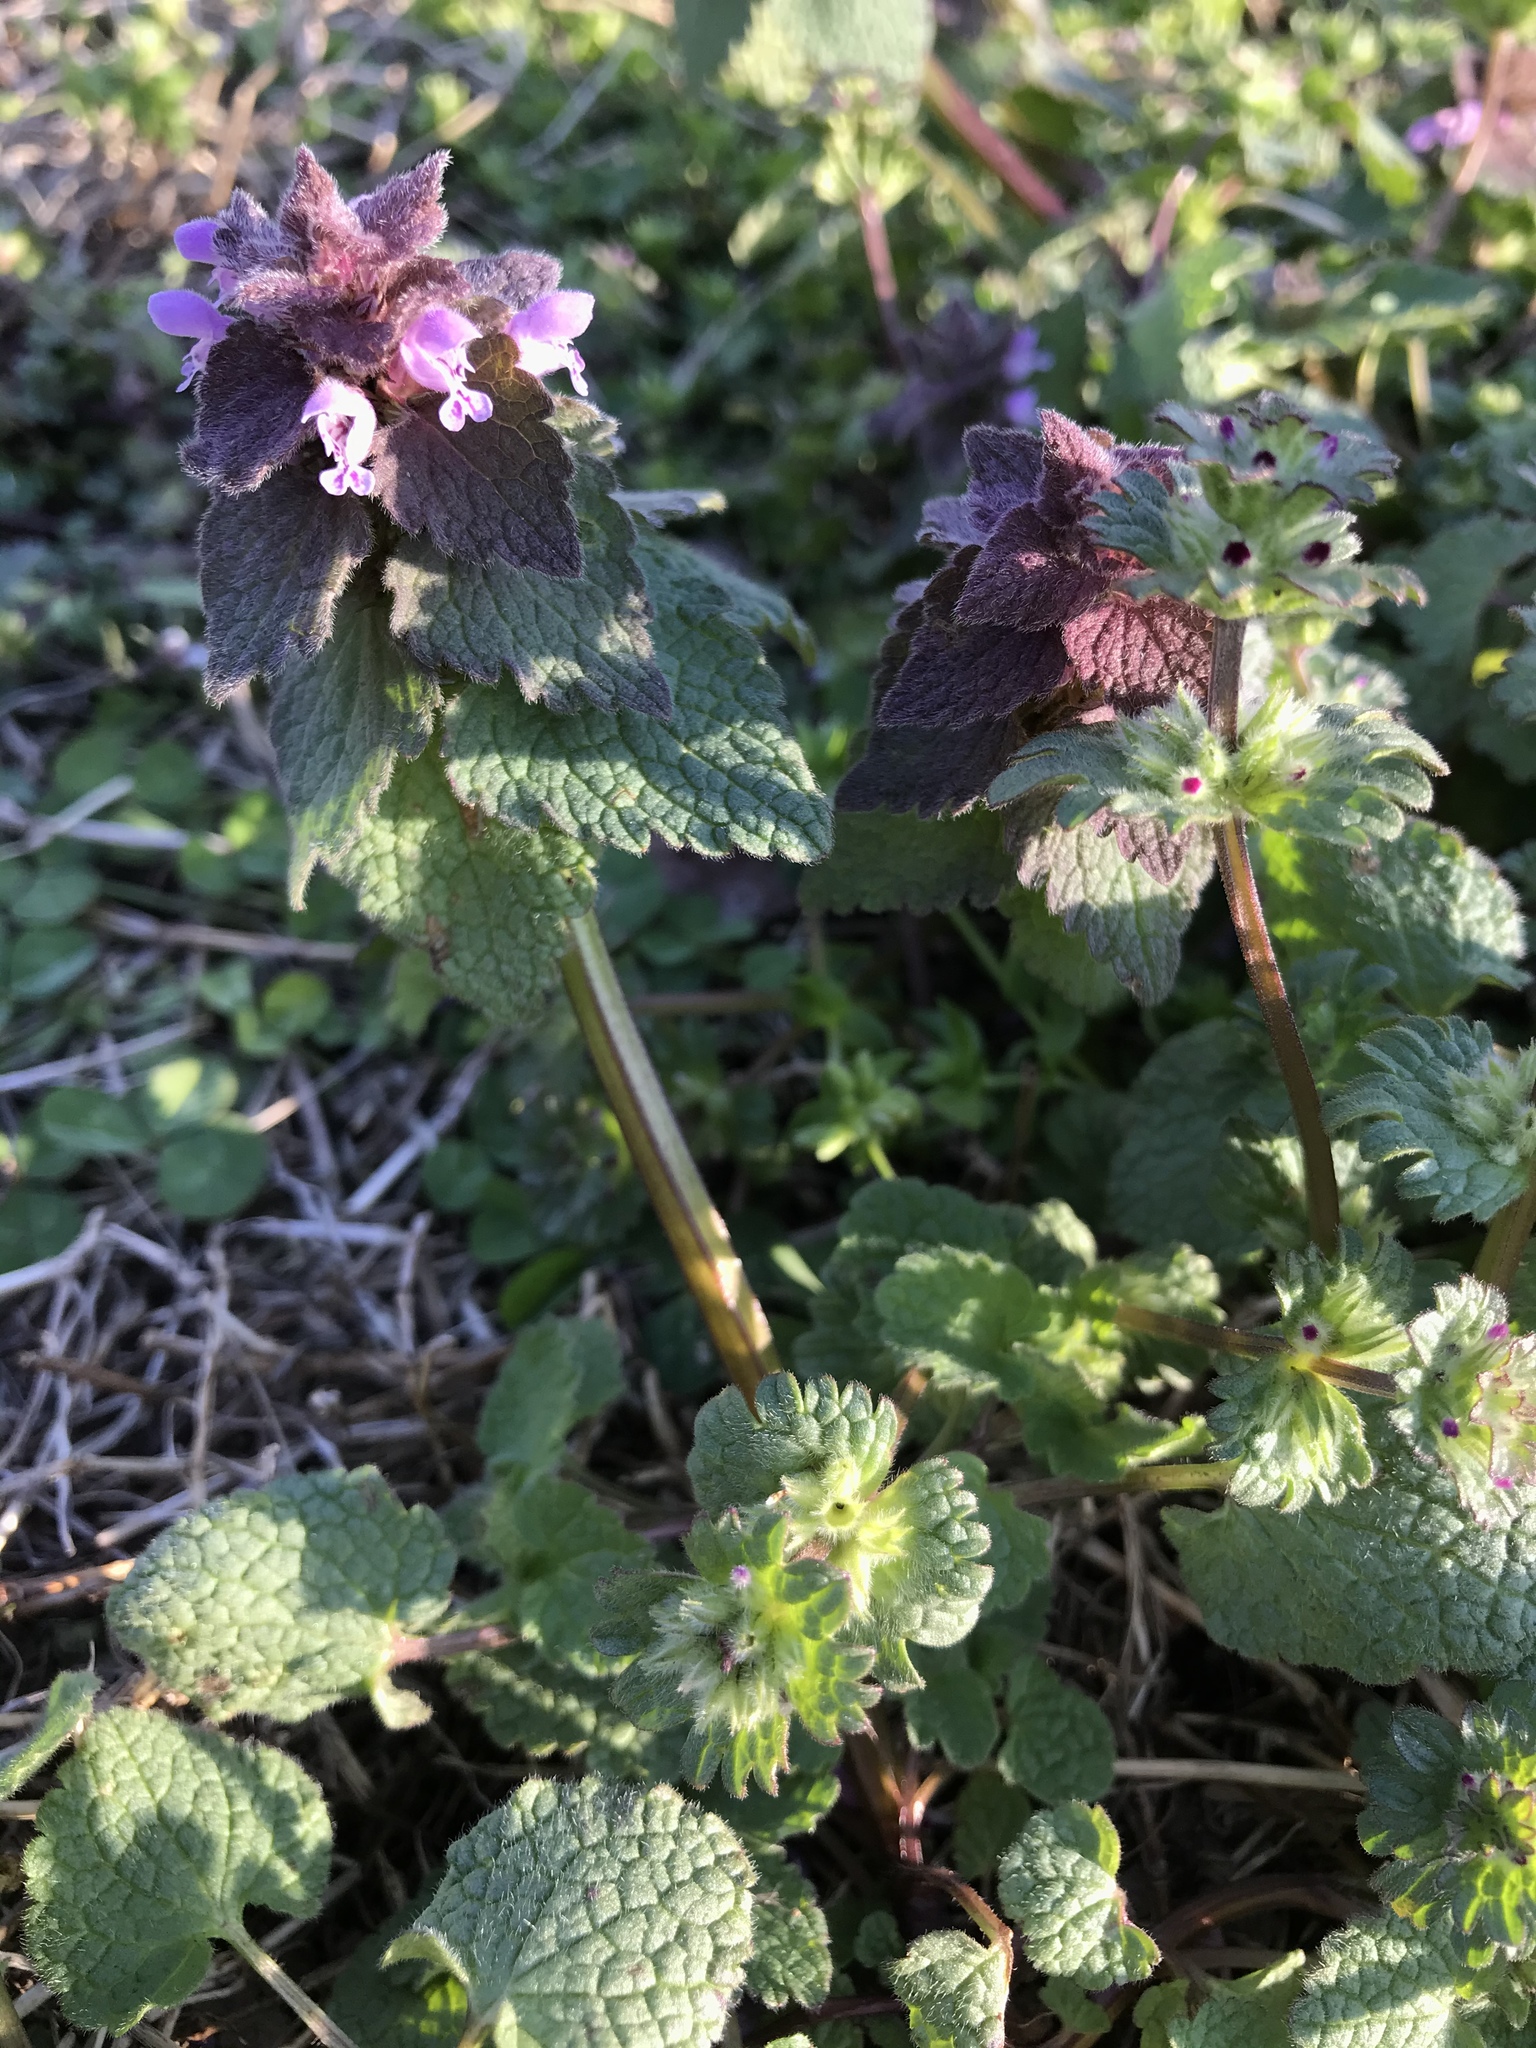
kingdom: Plantae
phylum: Tracheophyta
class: Magnoliopsida
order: Lamiales
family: Lamiaceae
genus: Lamium
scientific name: Lamium
